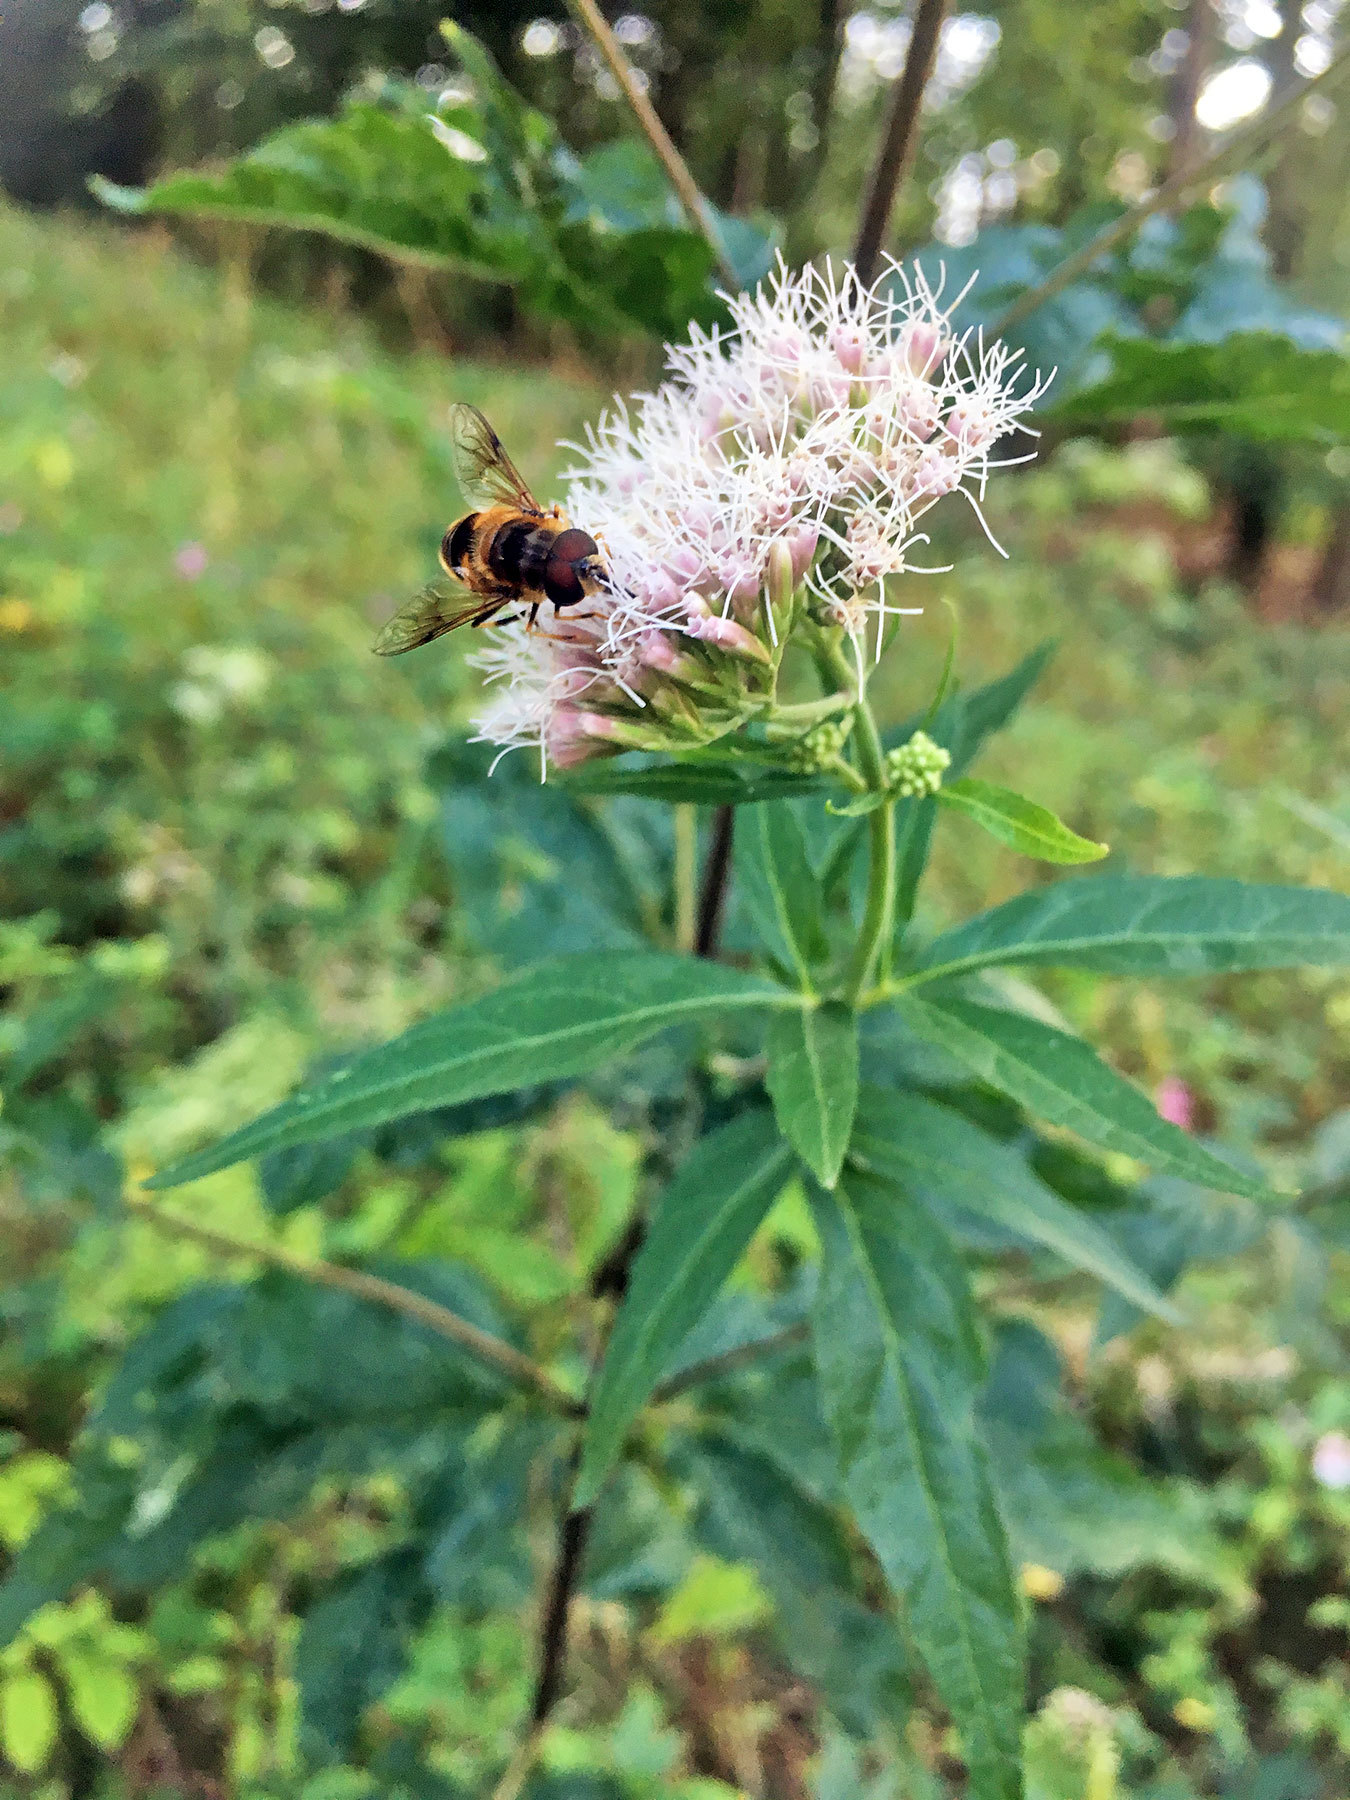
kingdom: Animalia
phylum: Arthropoda
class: Insecta
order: Diptera
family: Syrphidae
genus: Eristalis
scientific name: Eristalis pertinax
